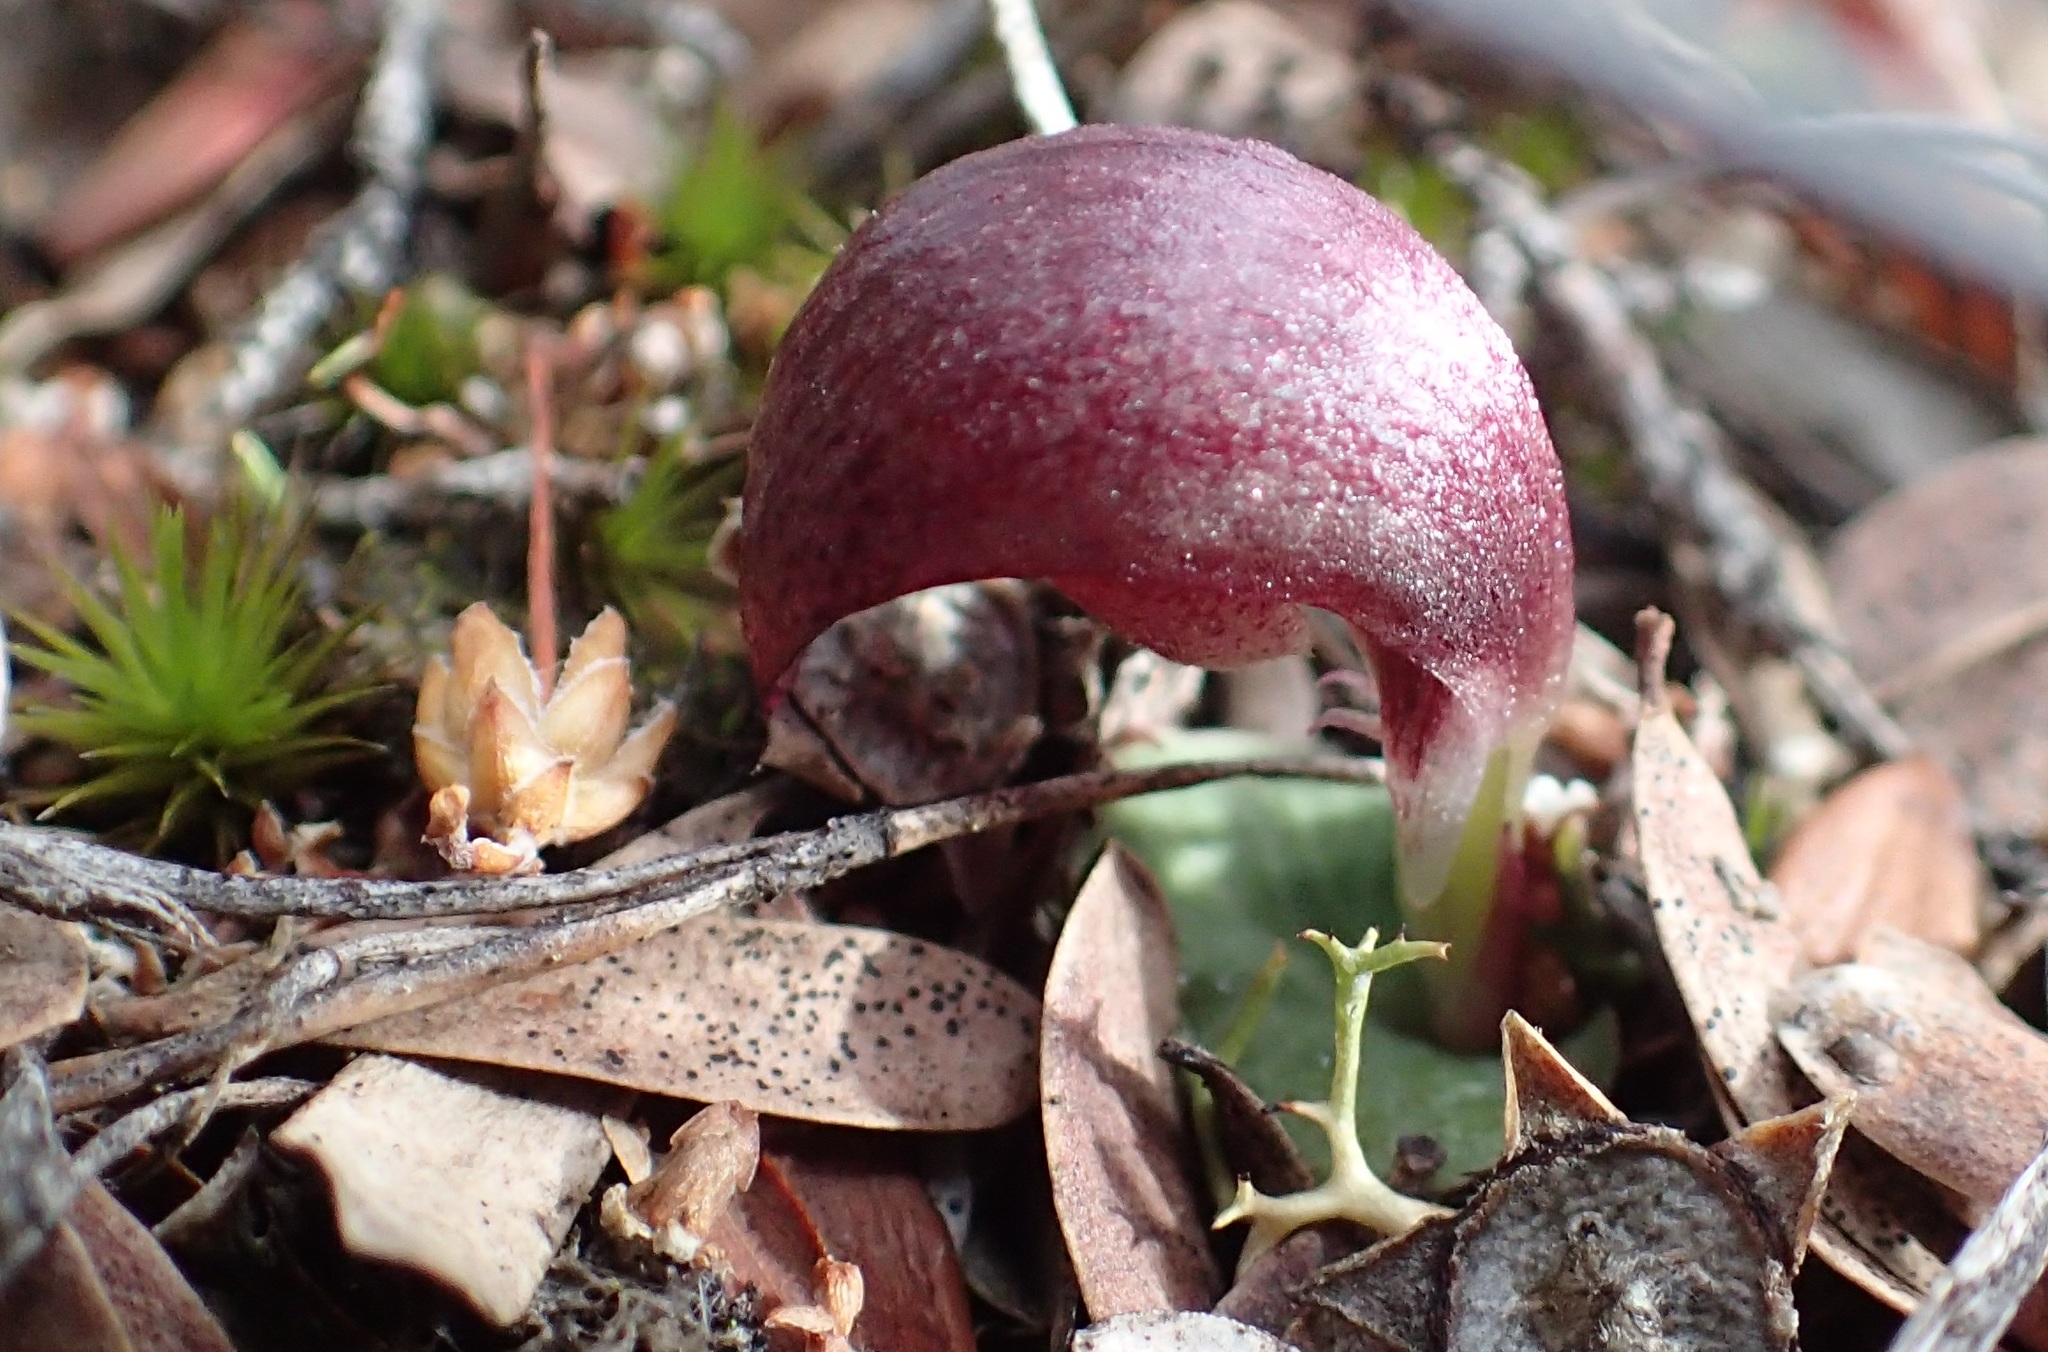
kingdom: Plantae
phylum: Tracheophyta
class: Liliopsida
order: Asparagales
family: Orchidaceae
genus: Corybas
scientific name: Corybas aconitiflorus
